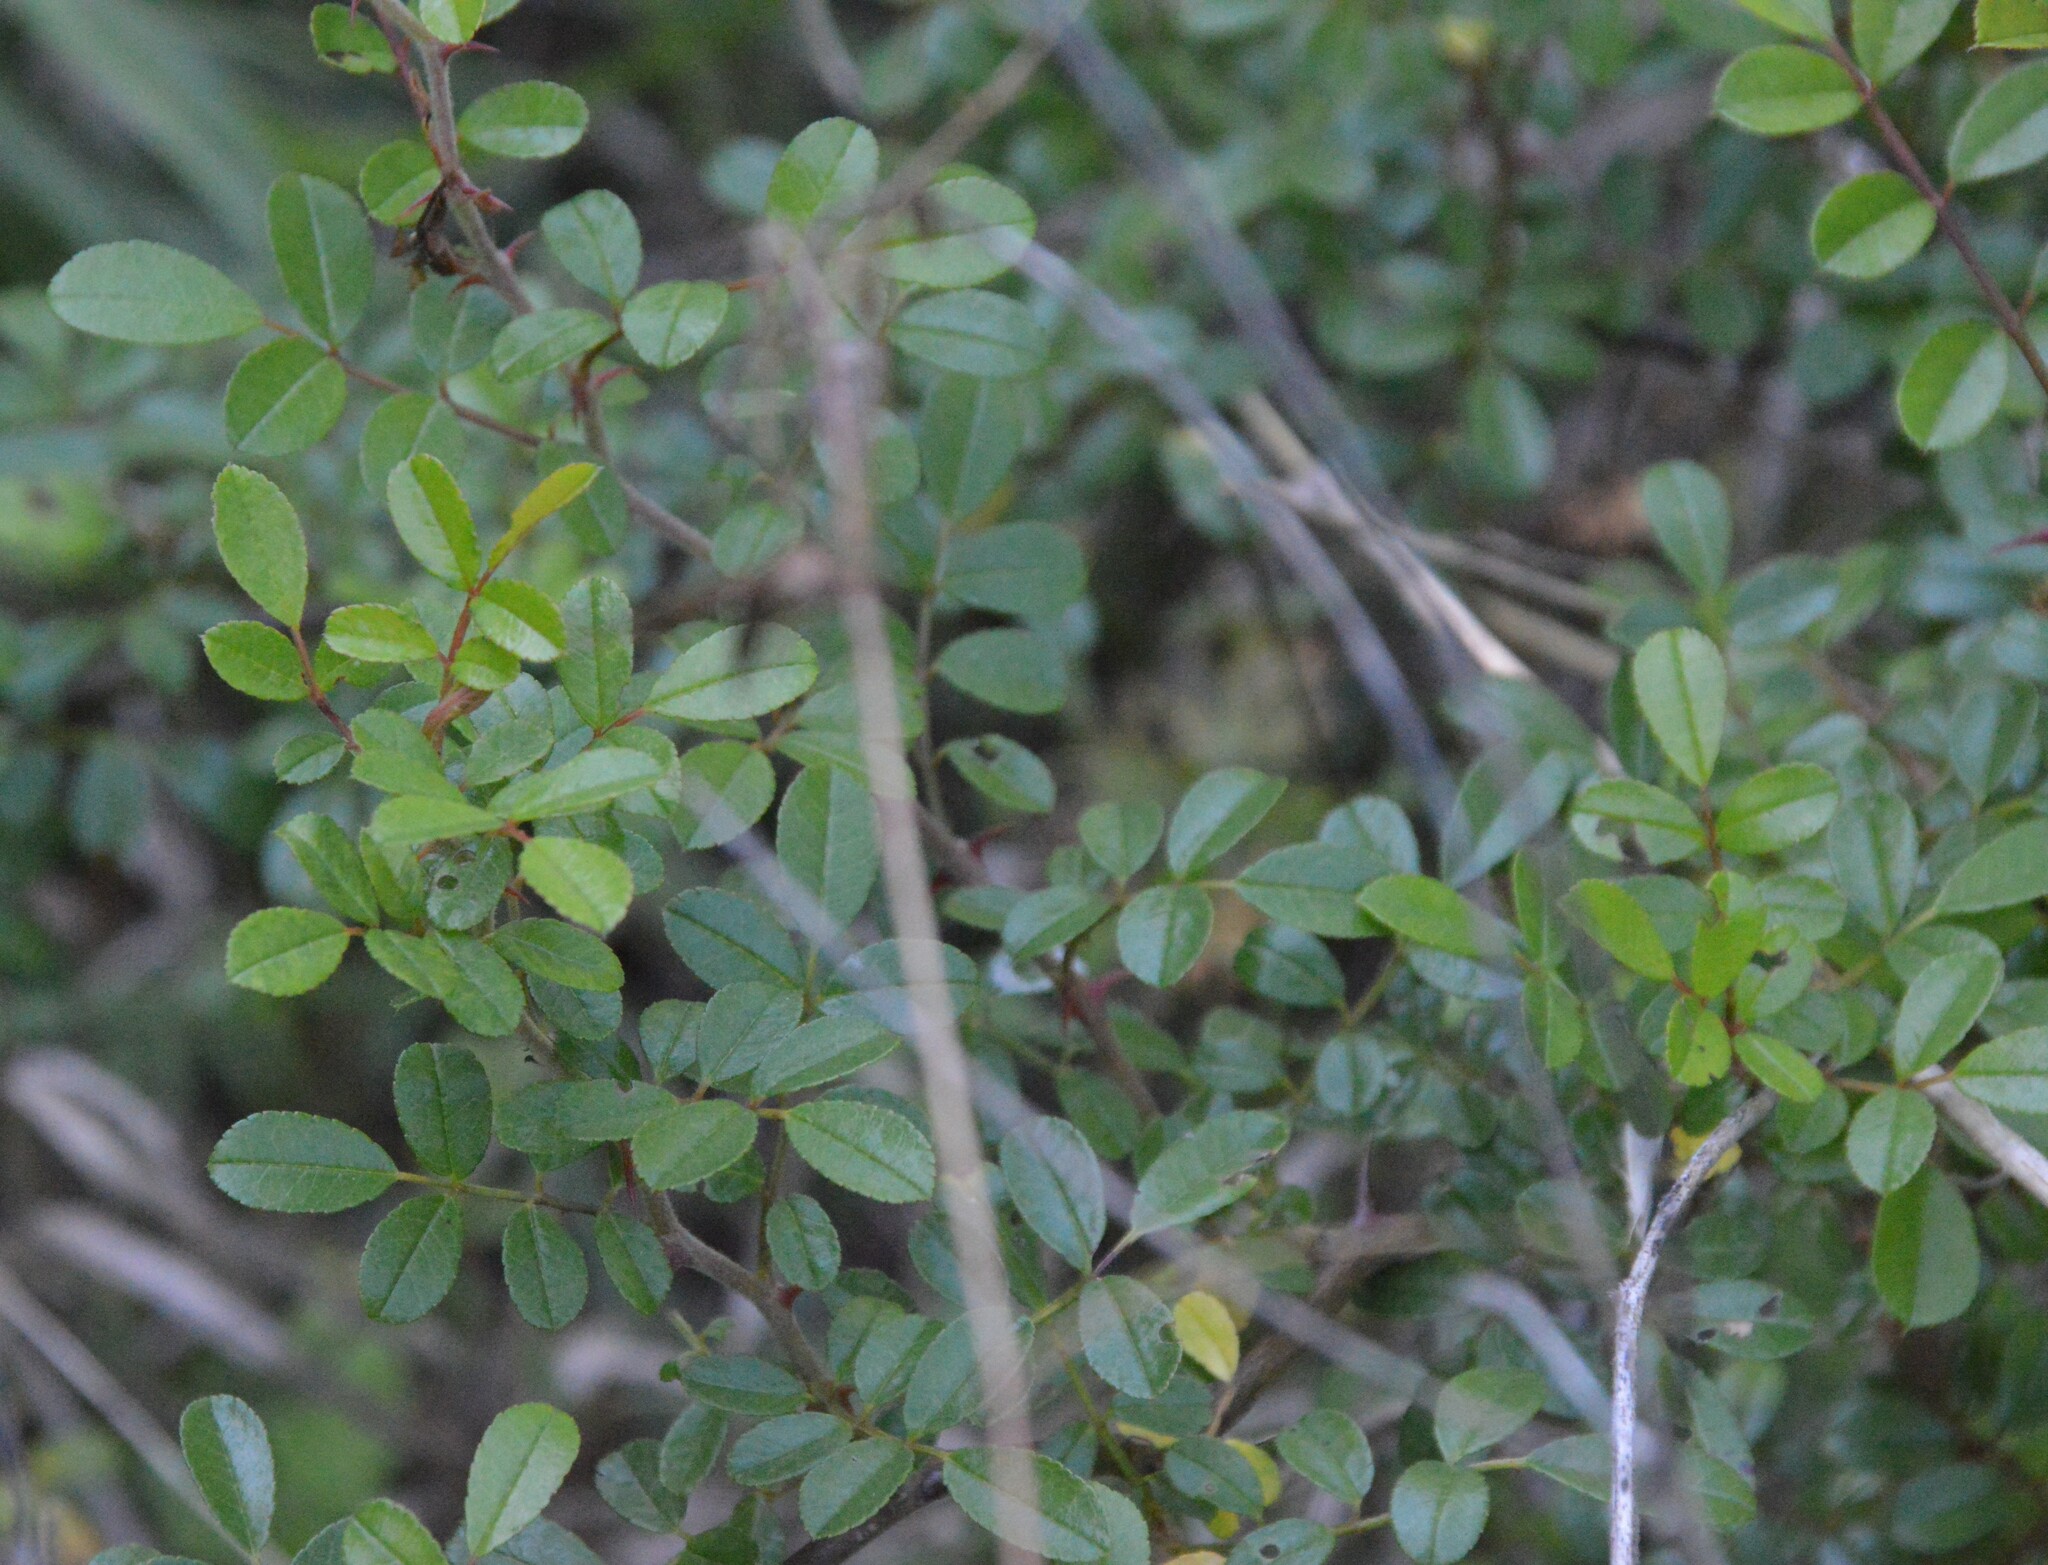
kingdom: Plantae
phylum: Tracheophyta
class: Magnoliopsida
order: Rosales
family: Rosaceae
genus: Rosa
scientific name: Rosa bracteata
